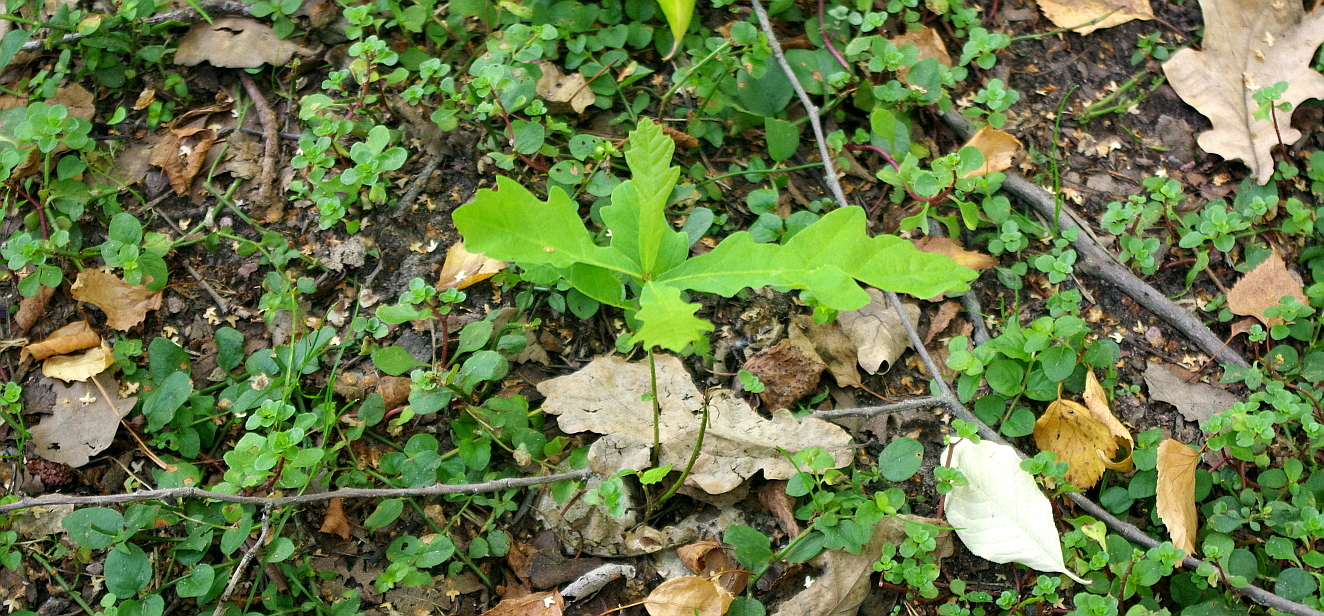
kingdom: Plantae
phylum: Tracheophyta
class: Magnoliopsida
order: Fagales
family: Fagaceae
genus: Quercus
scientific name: Quercus robur
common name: Pedunculate oak
